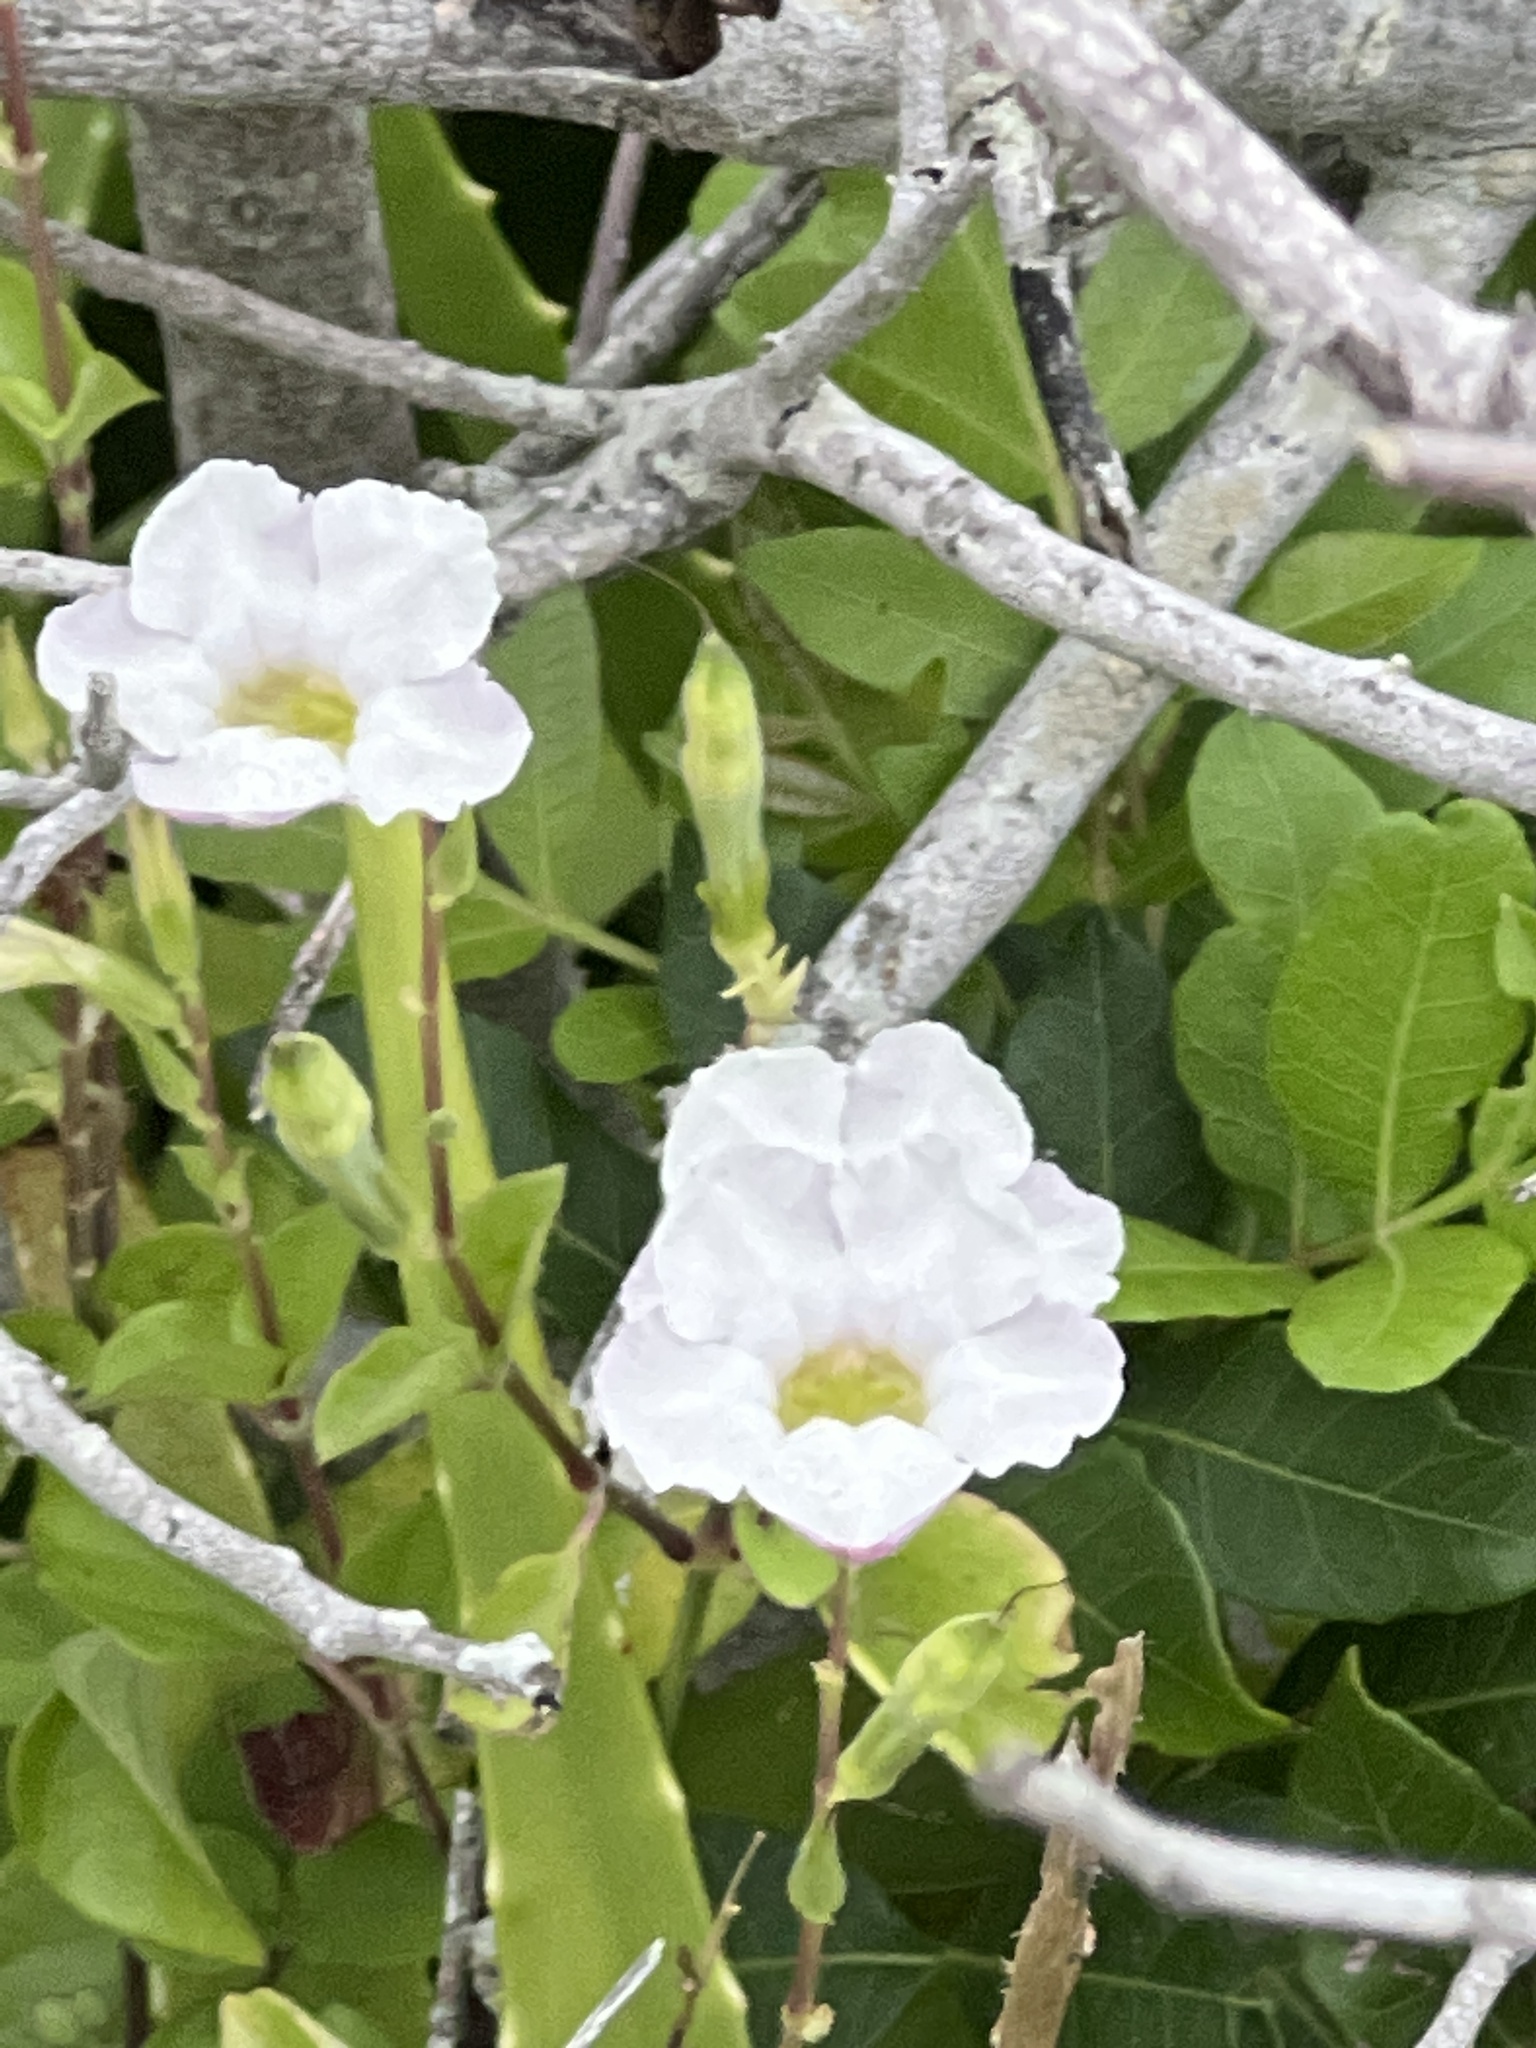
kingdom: Plantae
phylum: Tracheophyta
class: Magnoliopsida
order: Lamiales
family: Acanthaceae
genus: Asystasia
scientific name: Asystasia gangetica
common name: Chinese violet
